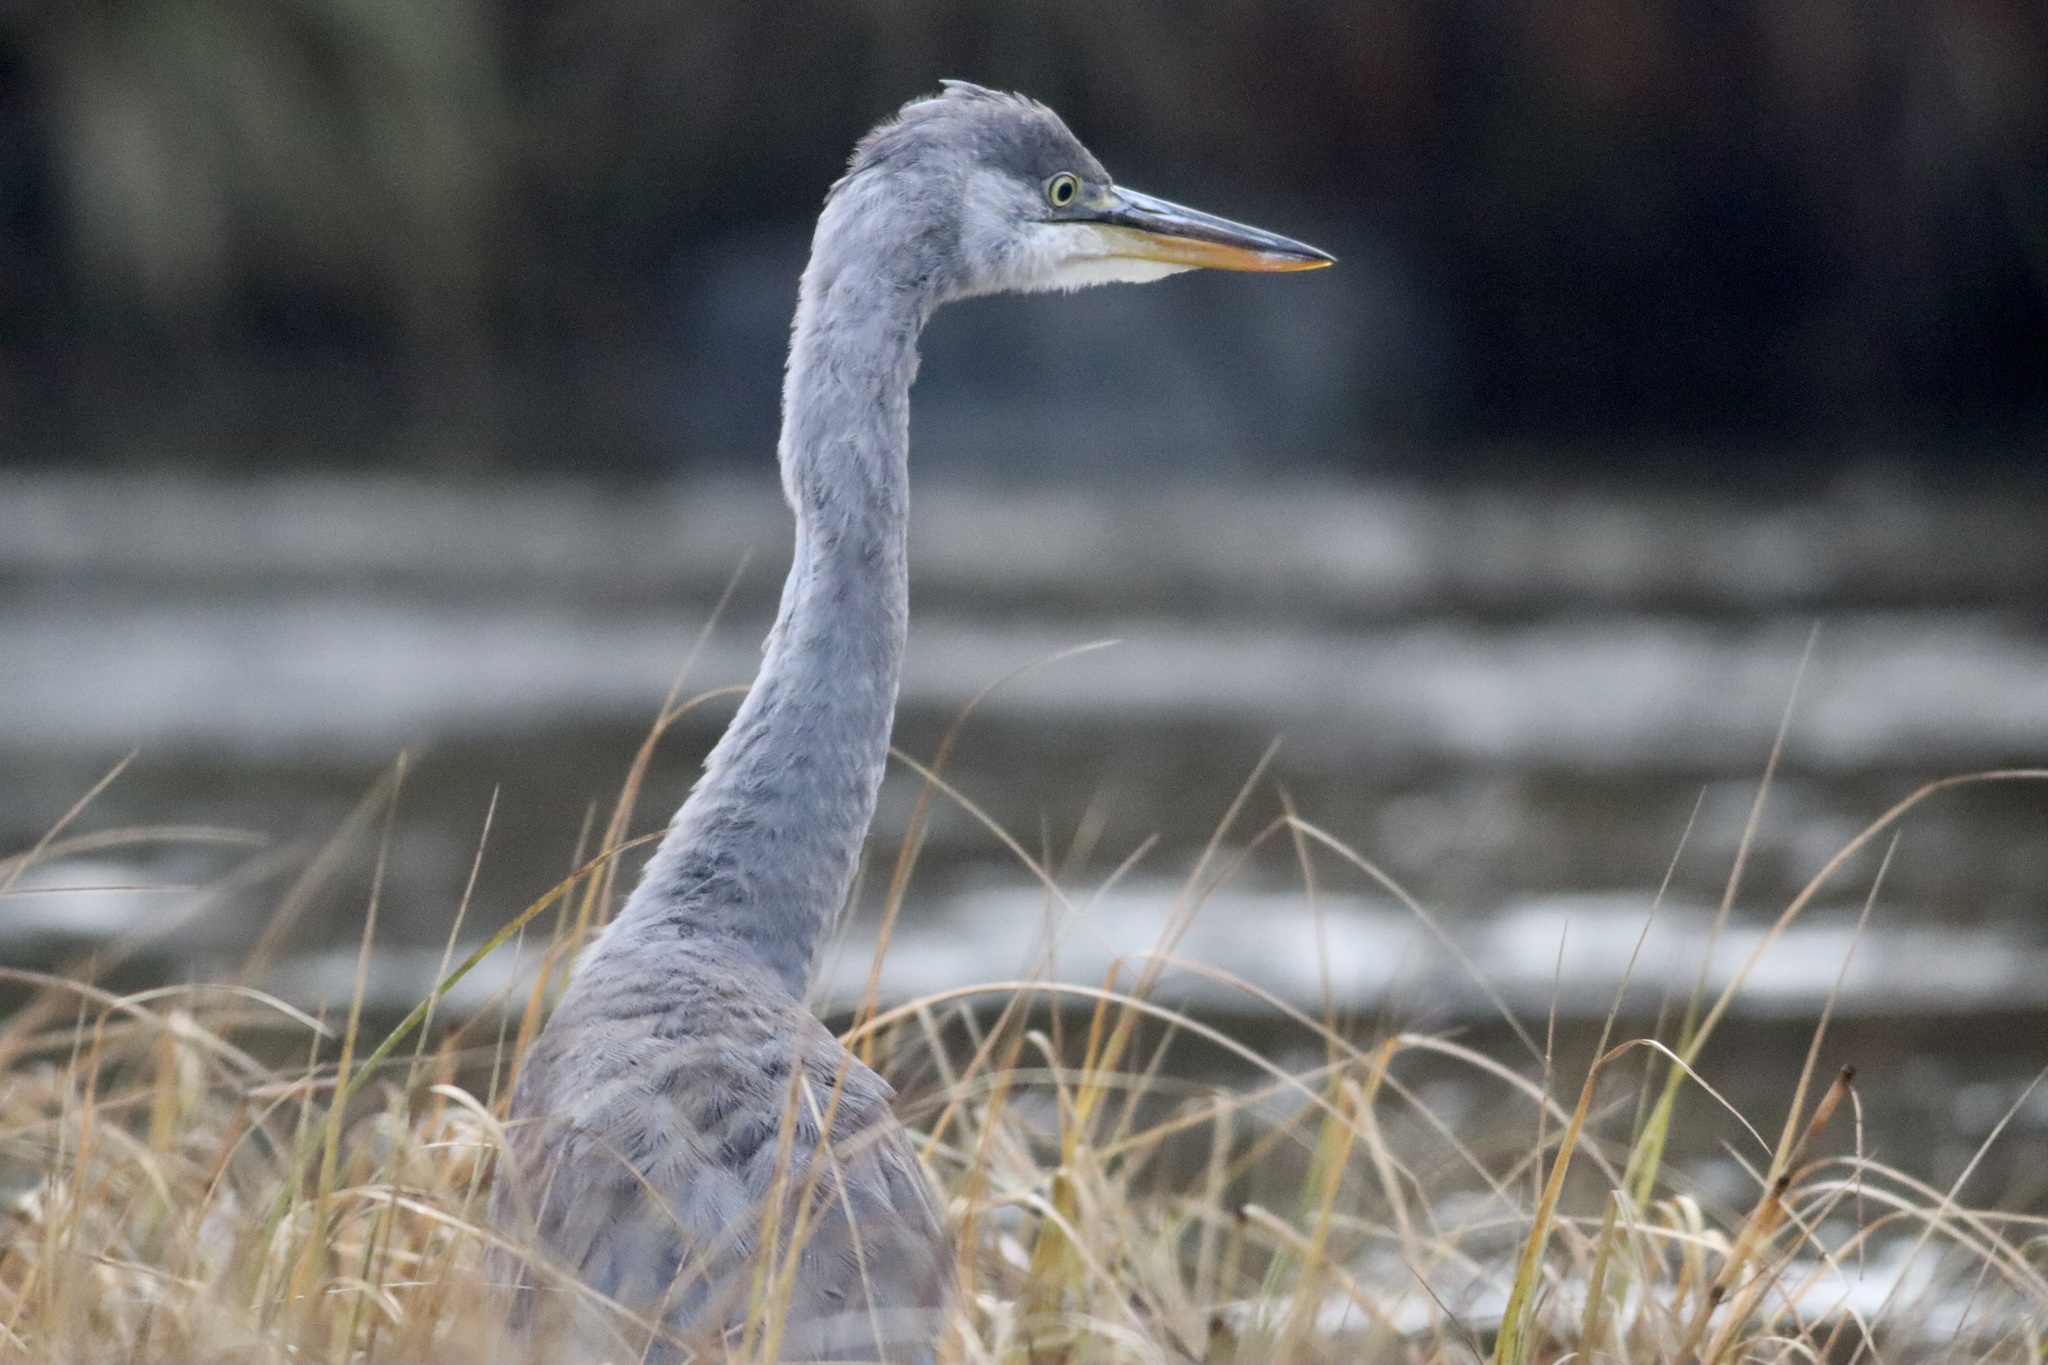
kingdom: Animalia
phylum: Chordata
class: Aves
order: Pelecaniformes
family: Ardeidae
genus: Ardea
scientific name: Ardea cinerea
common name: Grey heron
